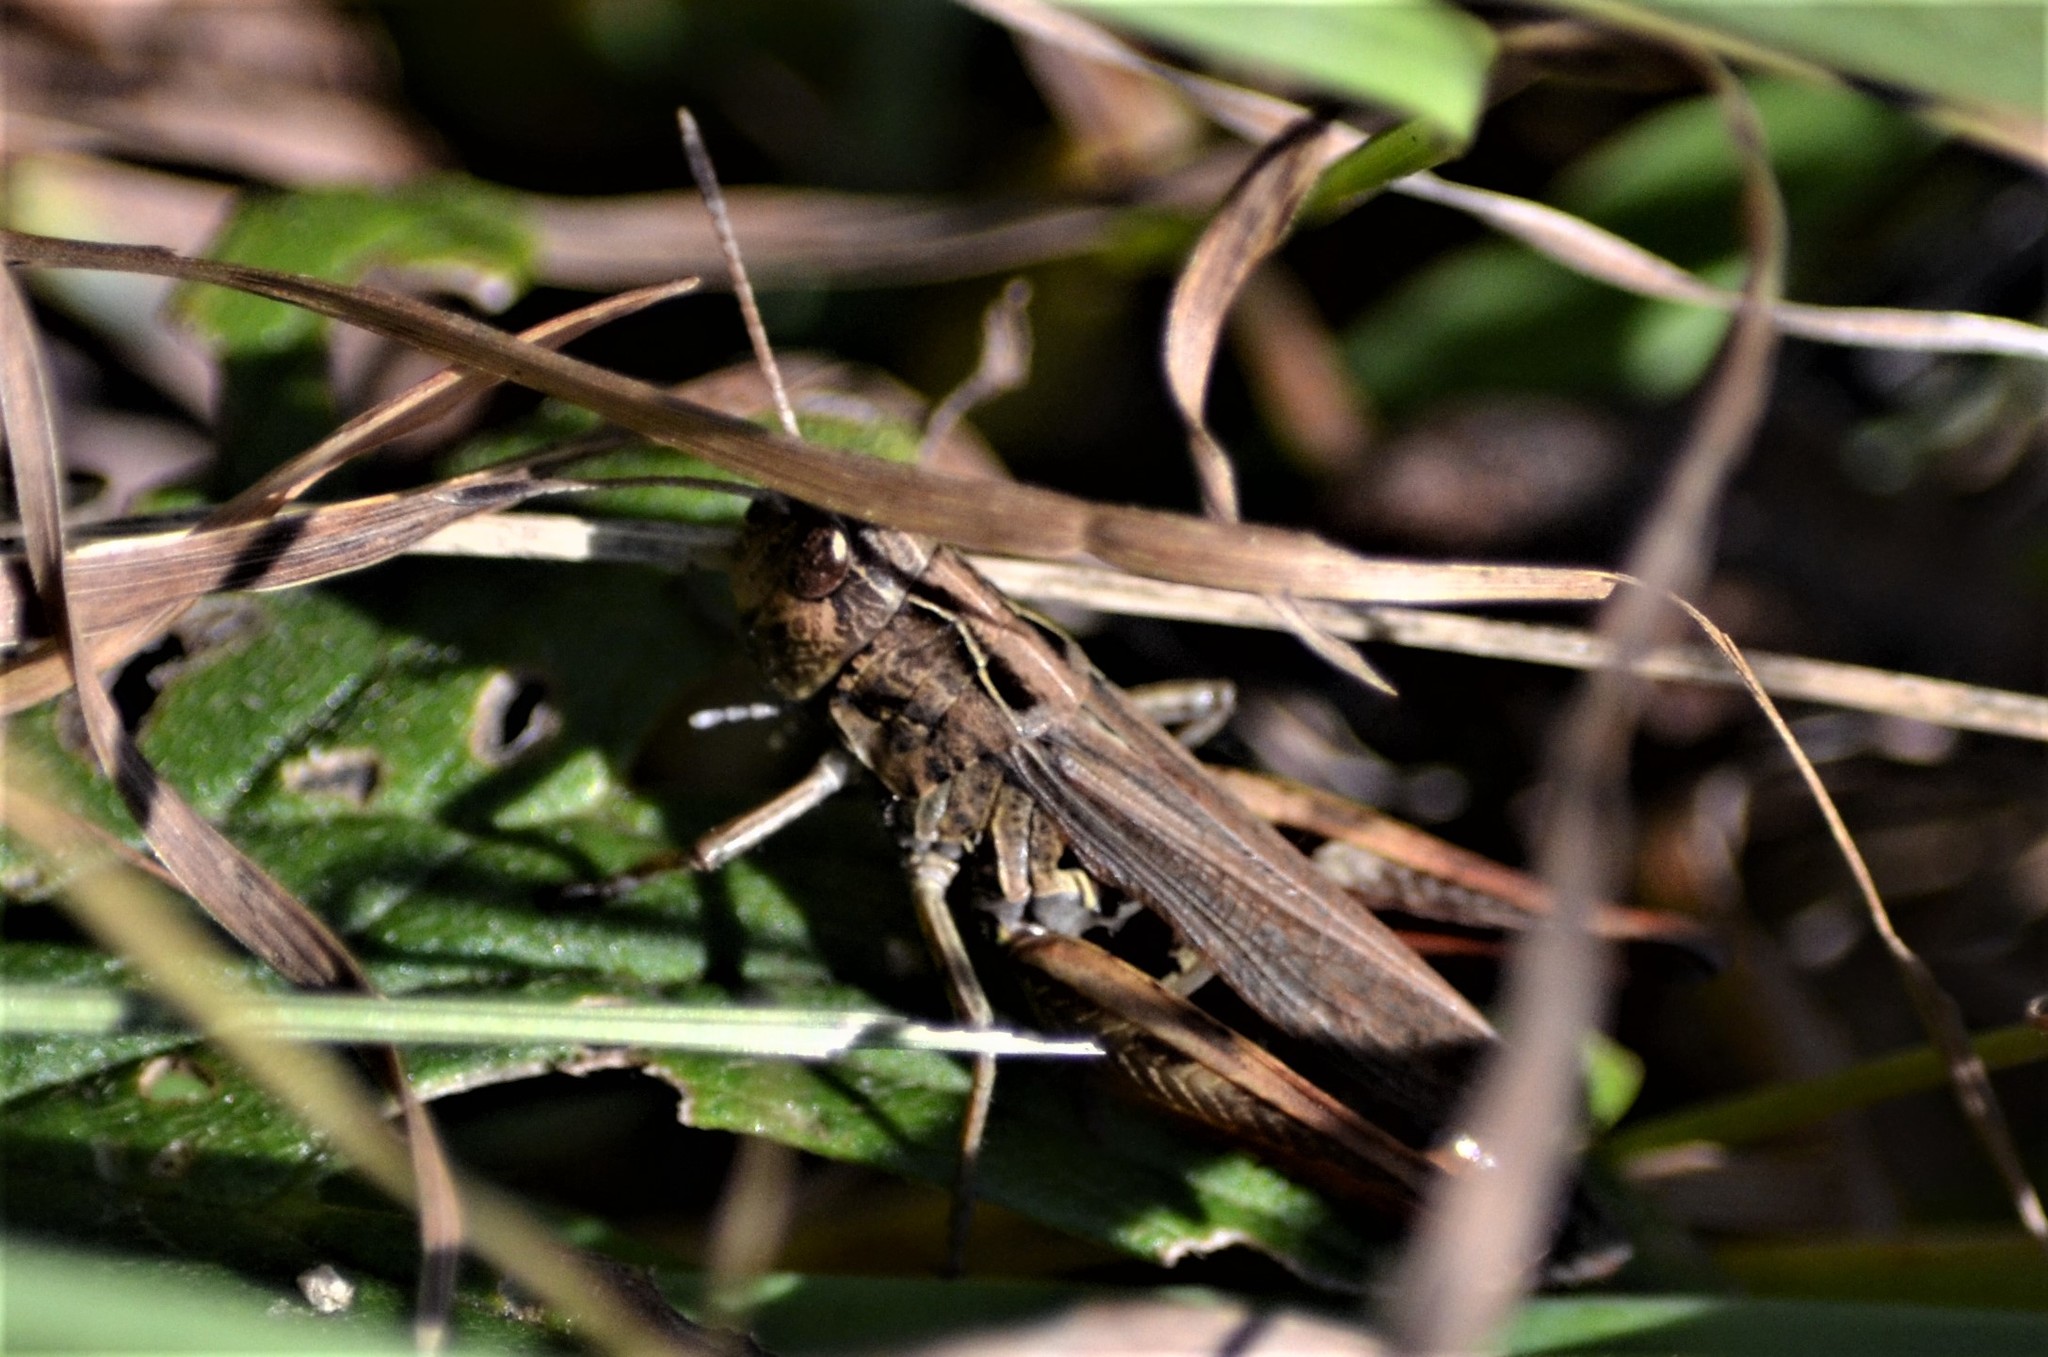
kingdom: Animalia
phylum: Arthropoda
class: Insecta
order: Orthoptera
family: Acrididae
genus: Gomphocerippus
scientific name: Gomphocerippus rufus
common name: Rufous grasshopper
